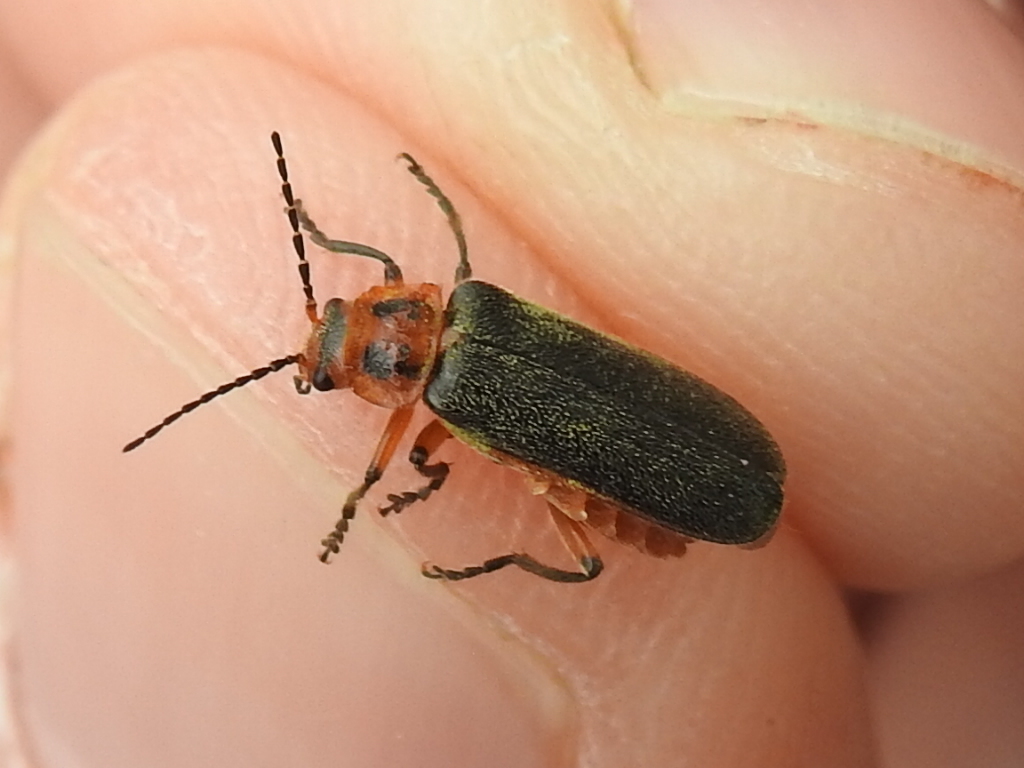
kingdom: Animalia
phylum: Arthropoda
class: Insecta
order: Coleoptera
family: Cantharidae
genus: Atalantycha
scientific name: Atalantycha bilineata
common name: Two-lined leatherwing
